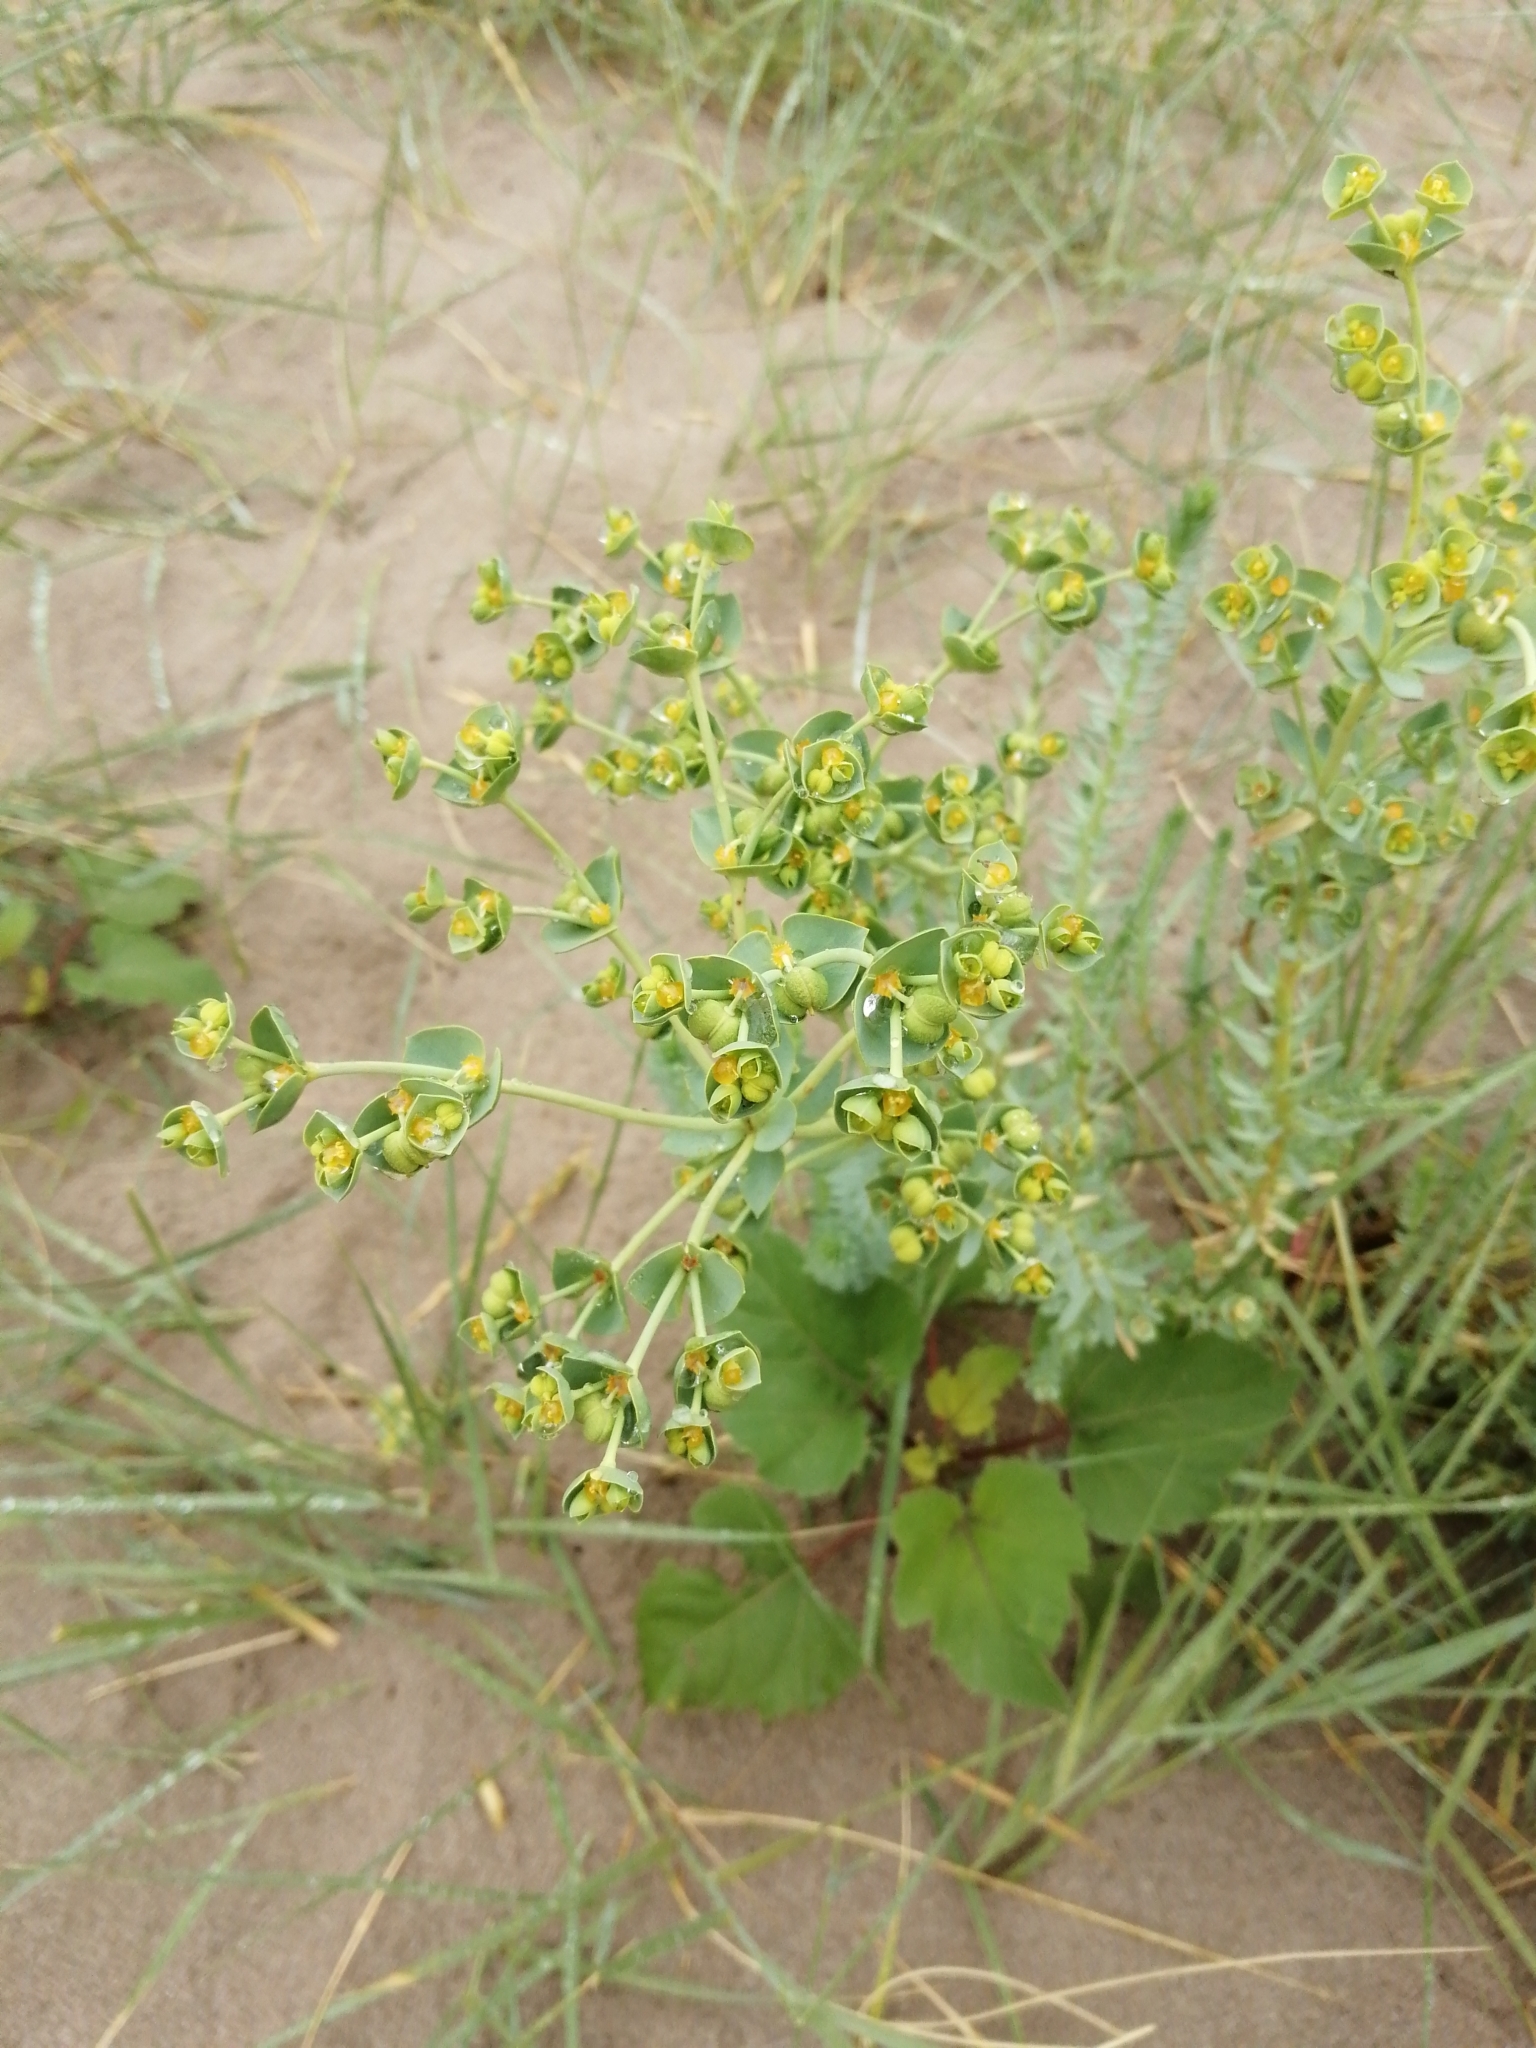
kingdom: Plantae
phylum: Tracheophyta
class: Magnoliopsida
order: Malpighiales
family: Euphorbiaceae
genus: Euphorbia
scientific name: Euphorbia paralias
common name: Sea spurge
